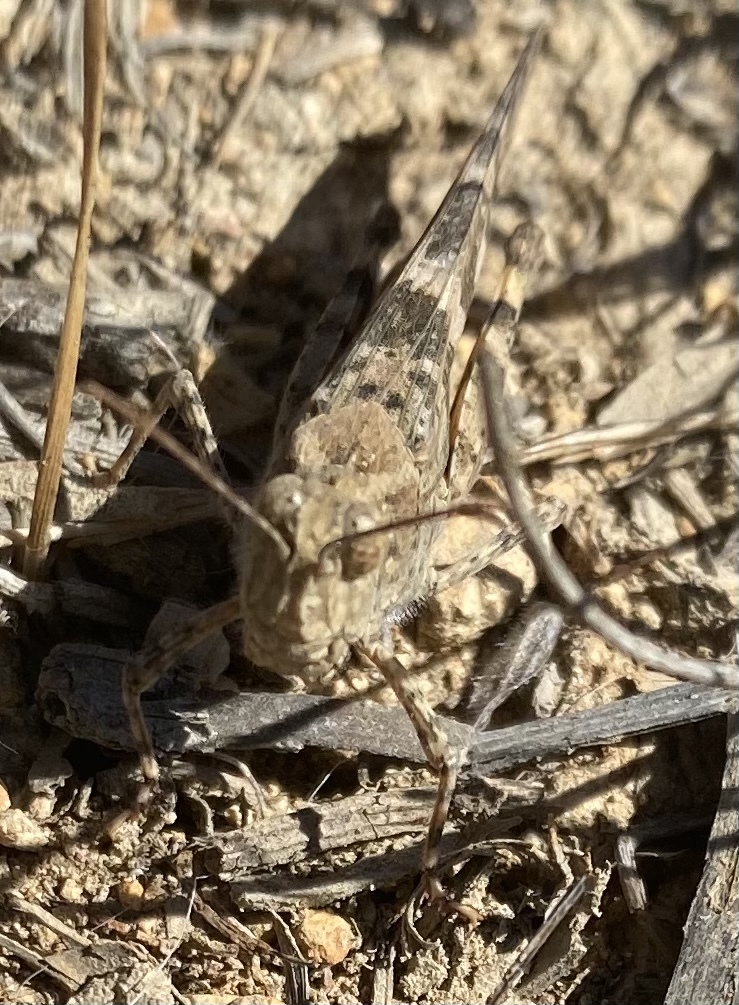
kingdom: Animalia
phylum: Arthropoda
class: Insecta
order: Orthoptera
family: Acrididae
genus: Trimerotropis
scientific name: Trimerotropis pallidipennis
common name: Pallid-winged grasshopper
